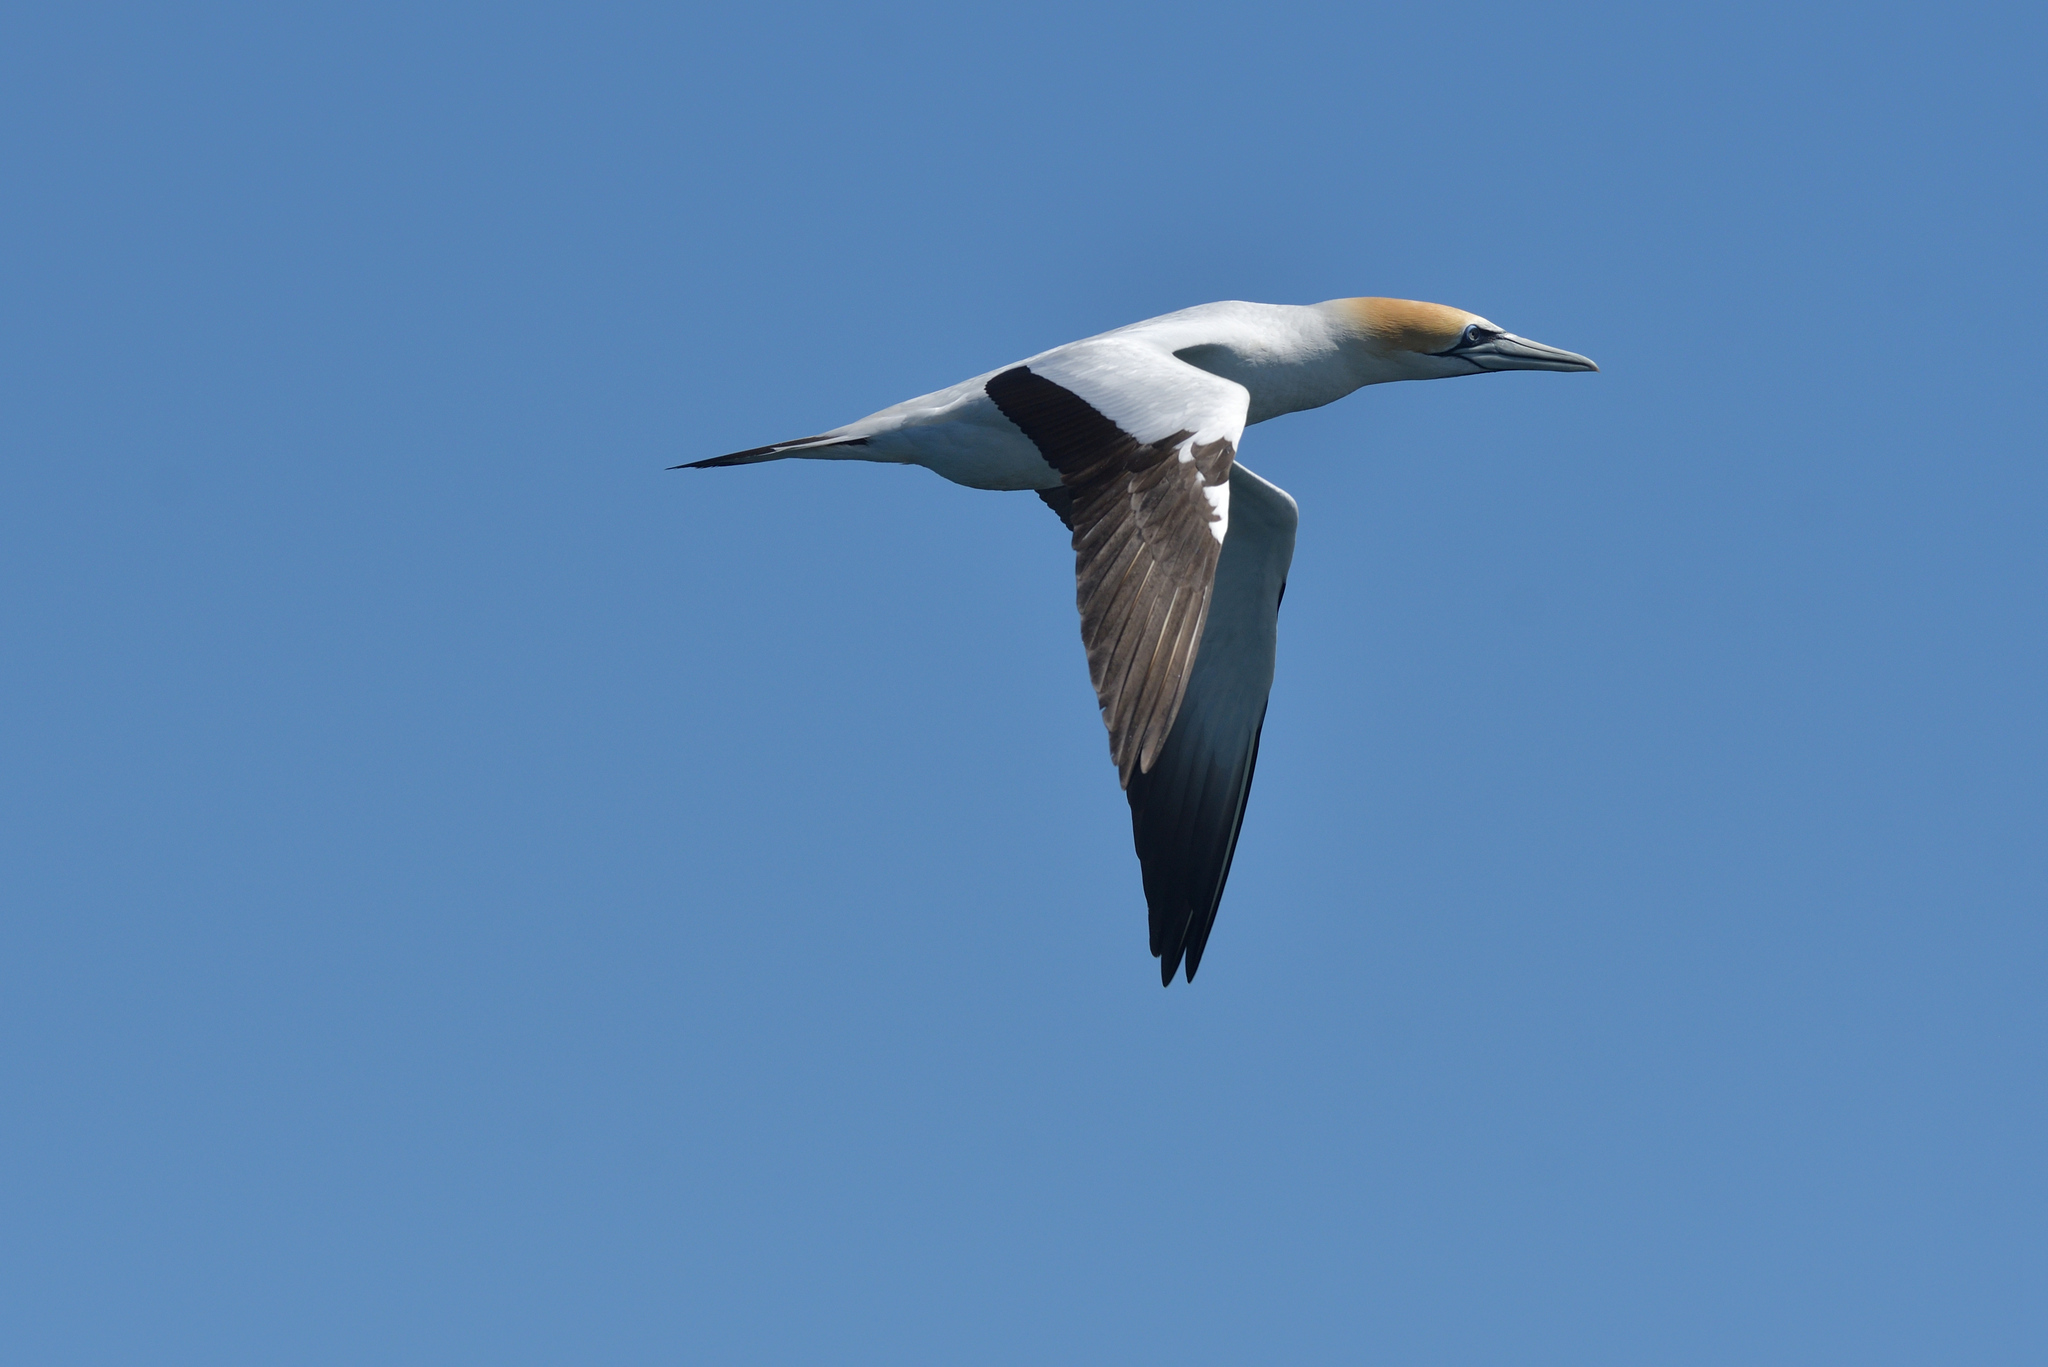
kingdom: Animalia
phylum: Chordata
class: Aves
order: Suliformes
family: Sulidae
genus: Morus
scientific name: Morus serrator
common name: Australasian gannet
